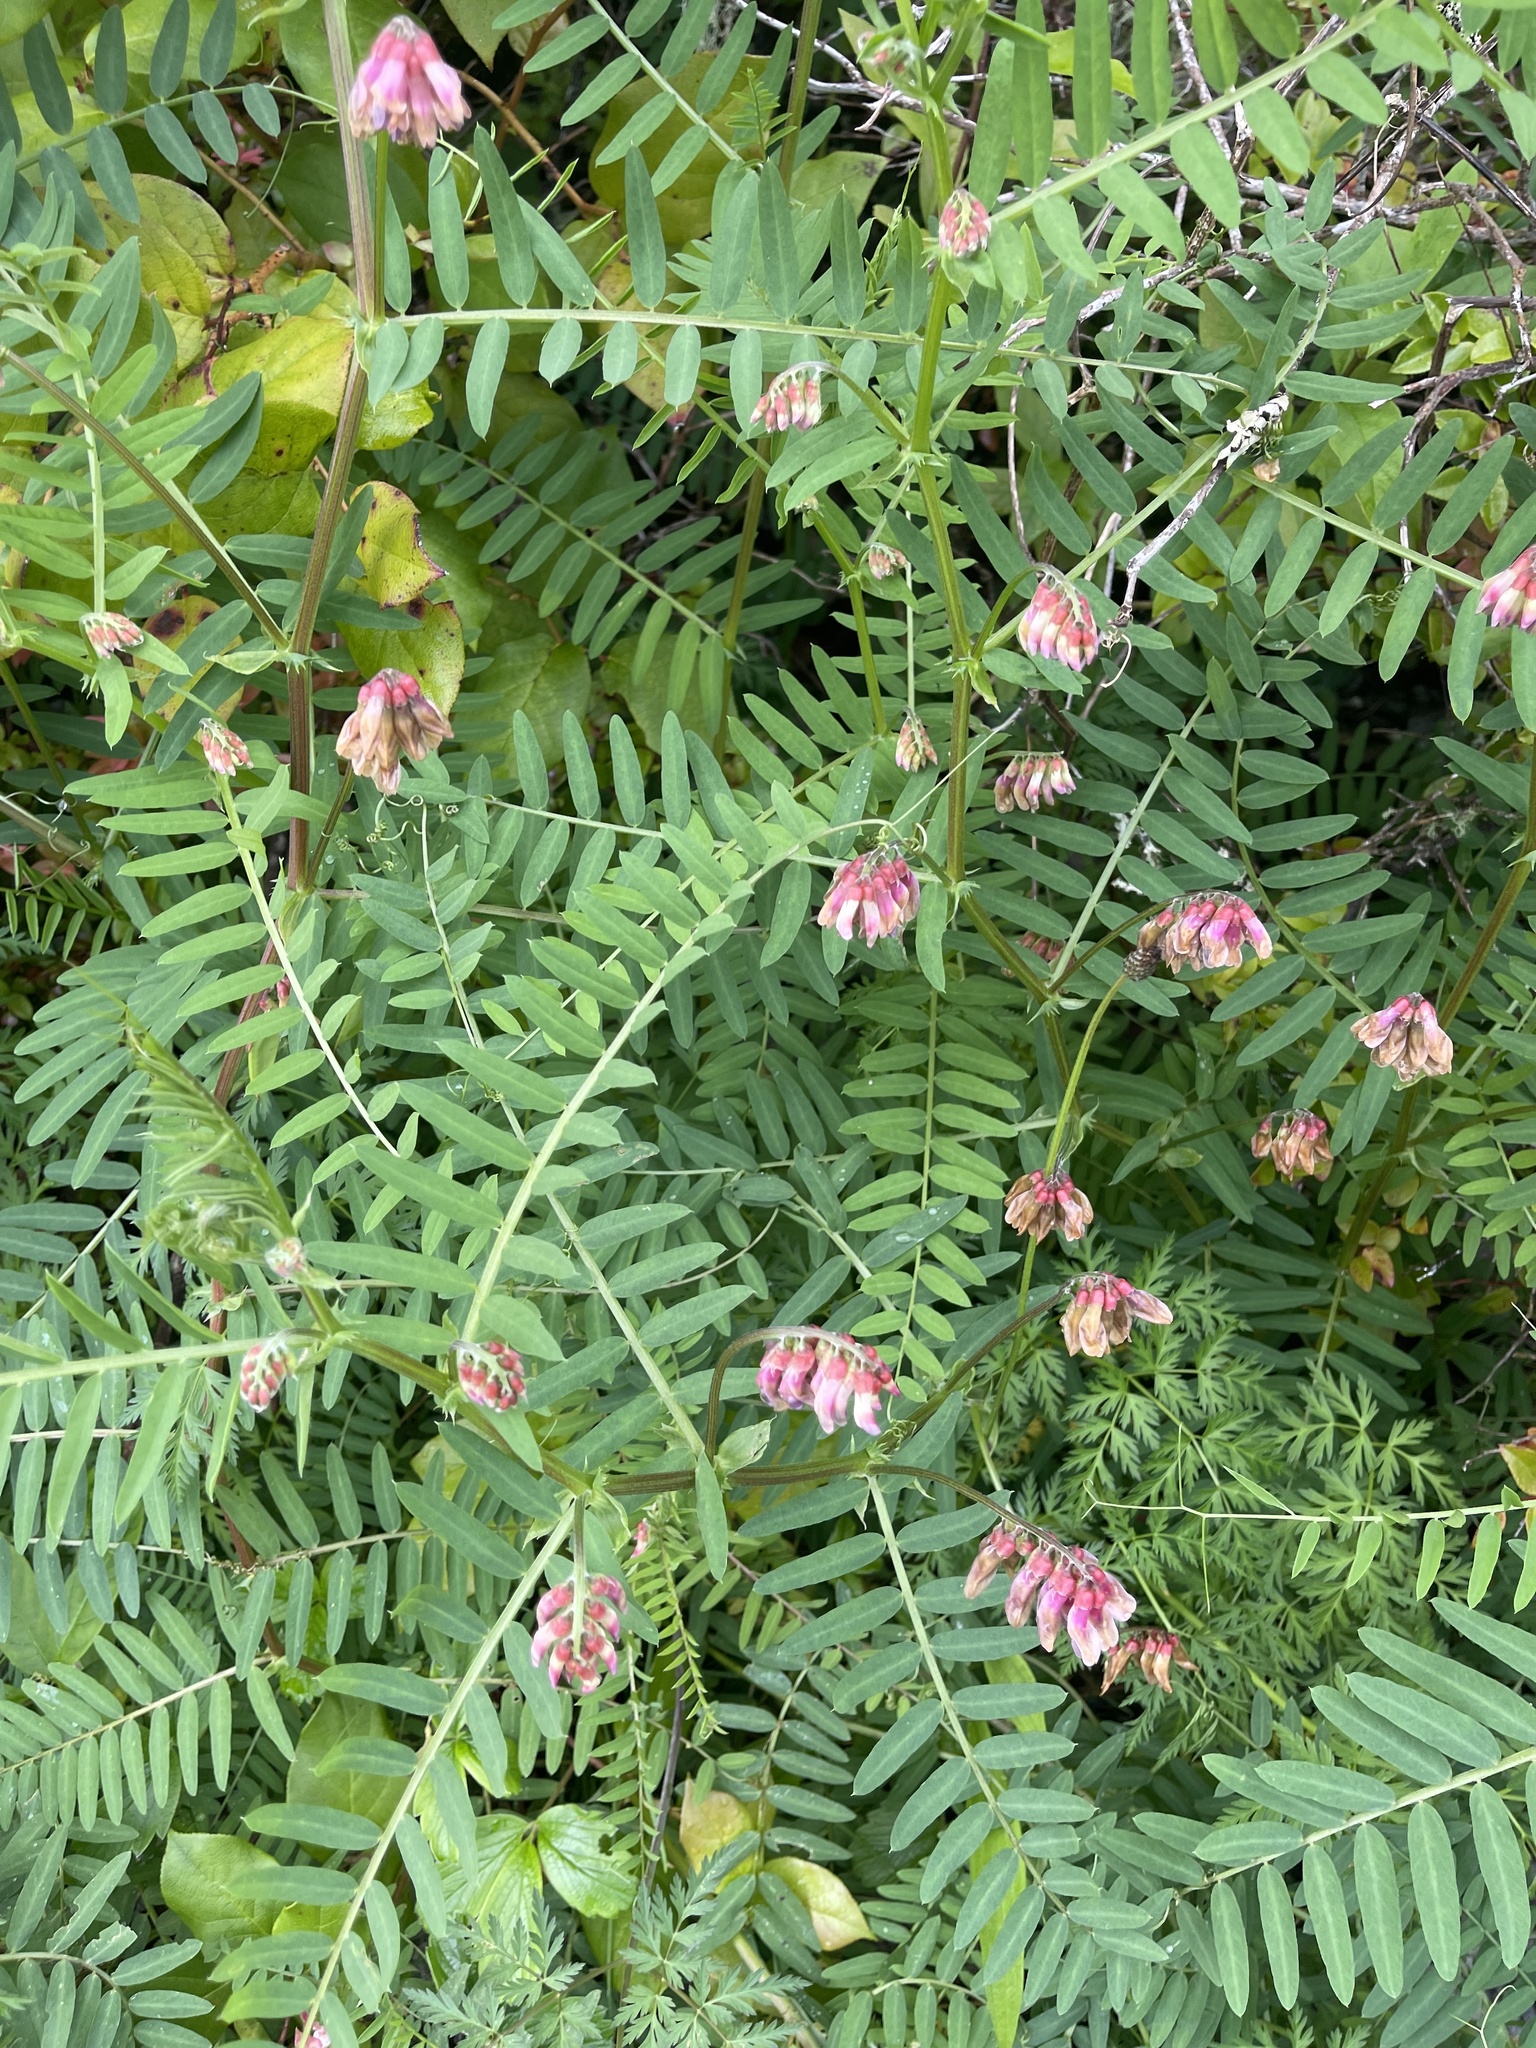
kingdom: Plantae
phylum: Tracheophyta
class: Magnoliopsida
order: Fabales
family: Fabaceae
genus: Vicia
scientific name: Vicia
